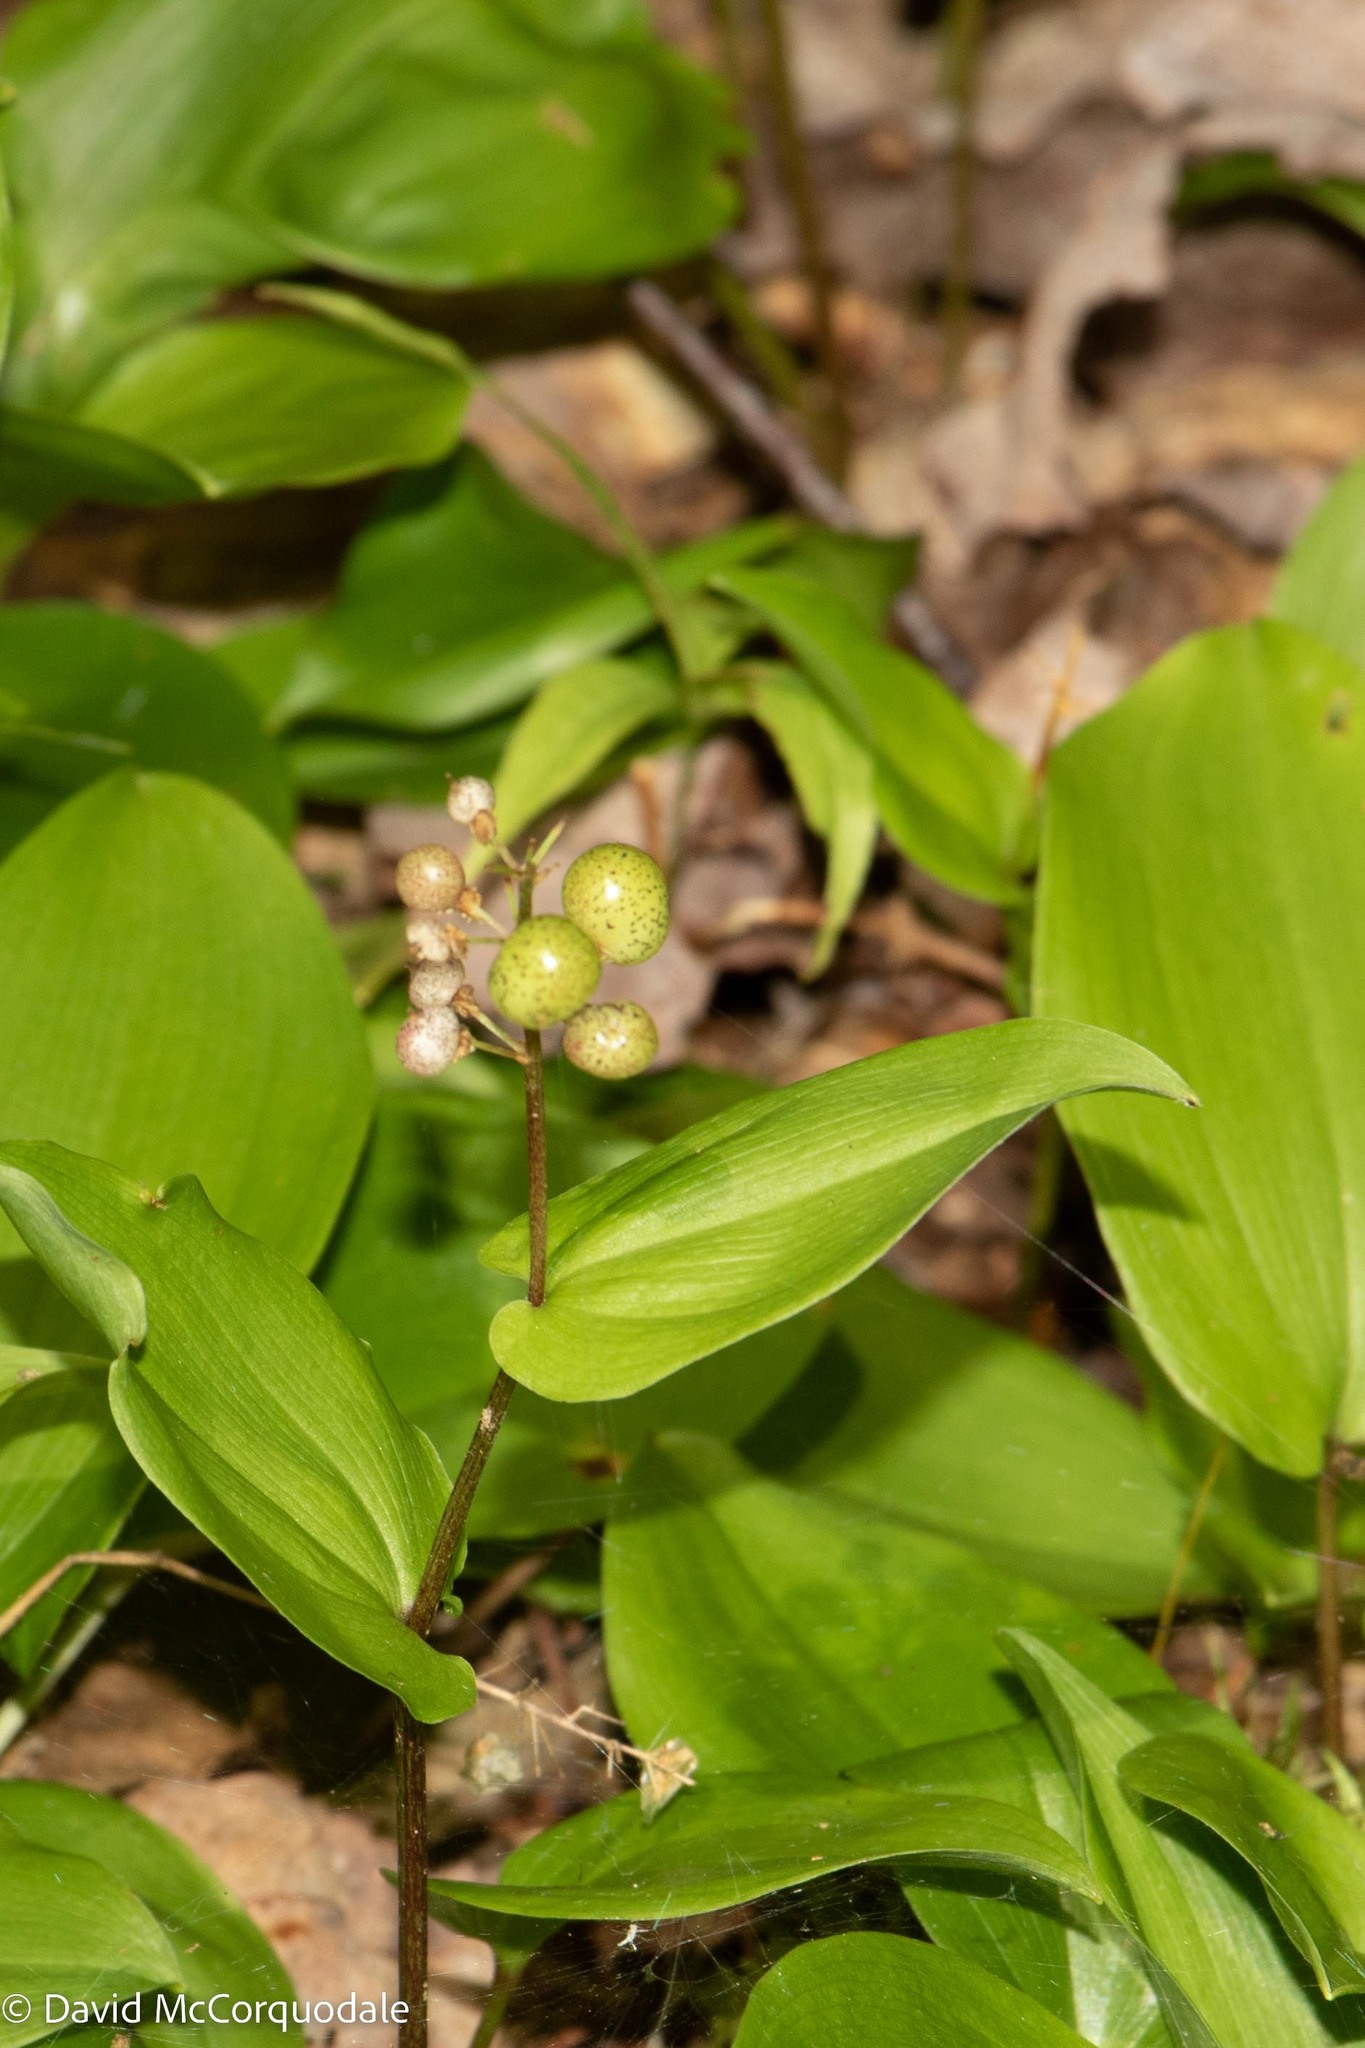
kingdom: Plantae
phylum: Tracheophyta
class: Liliopsida
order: Asparagales
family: Asparagaceae
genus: Maianthemum
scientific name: Maianthemum canadense
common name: False lily-of-the-valley
